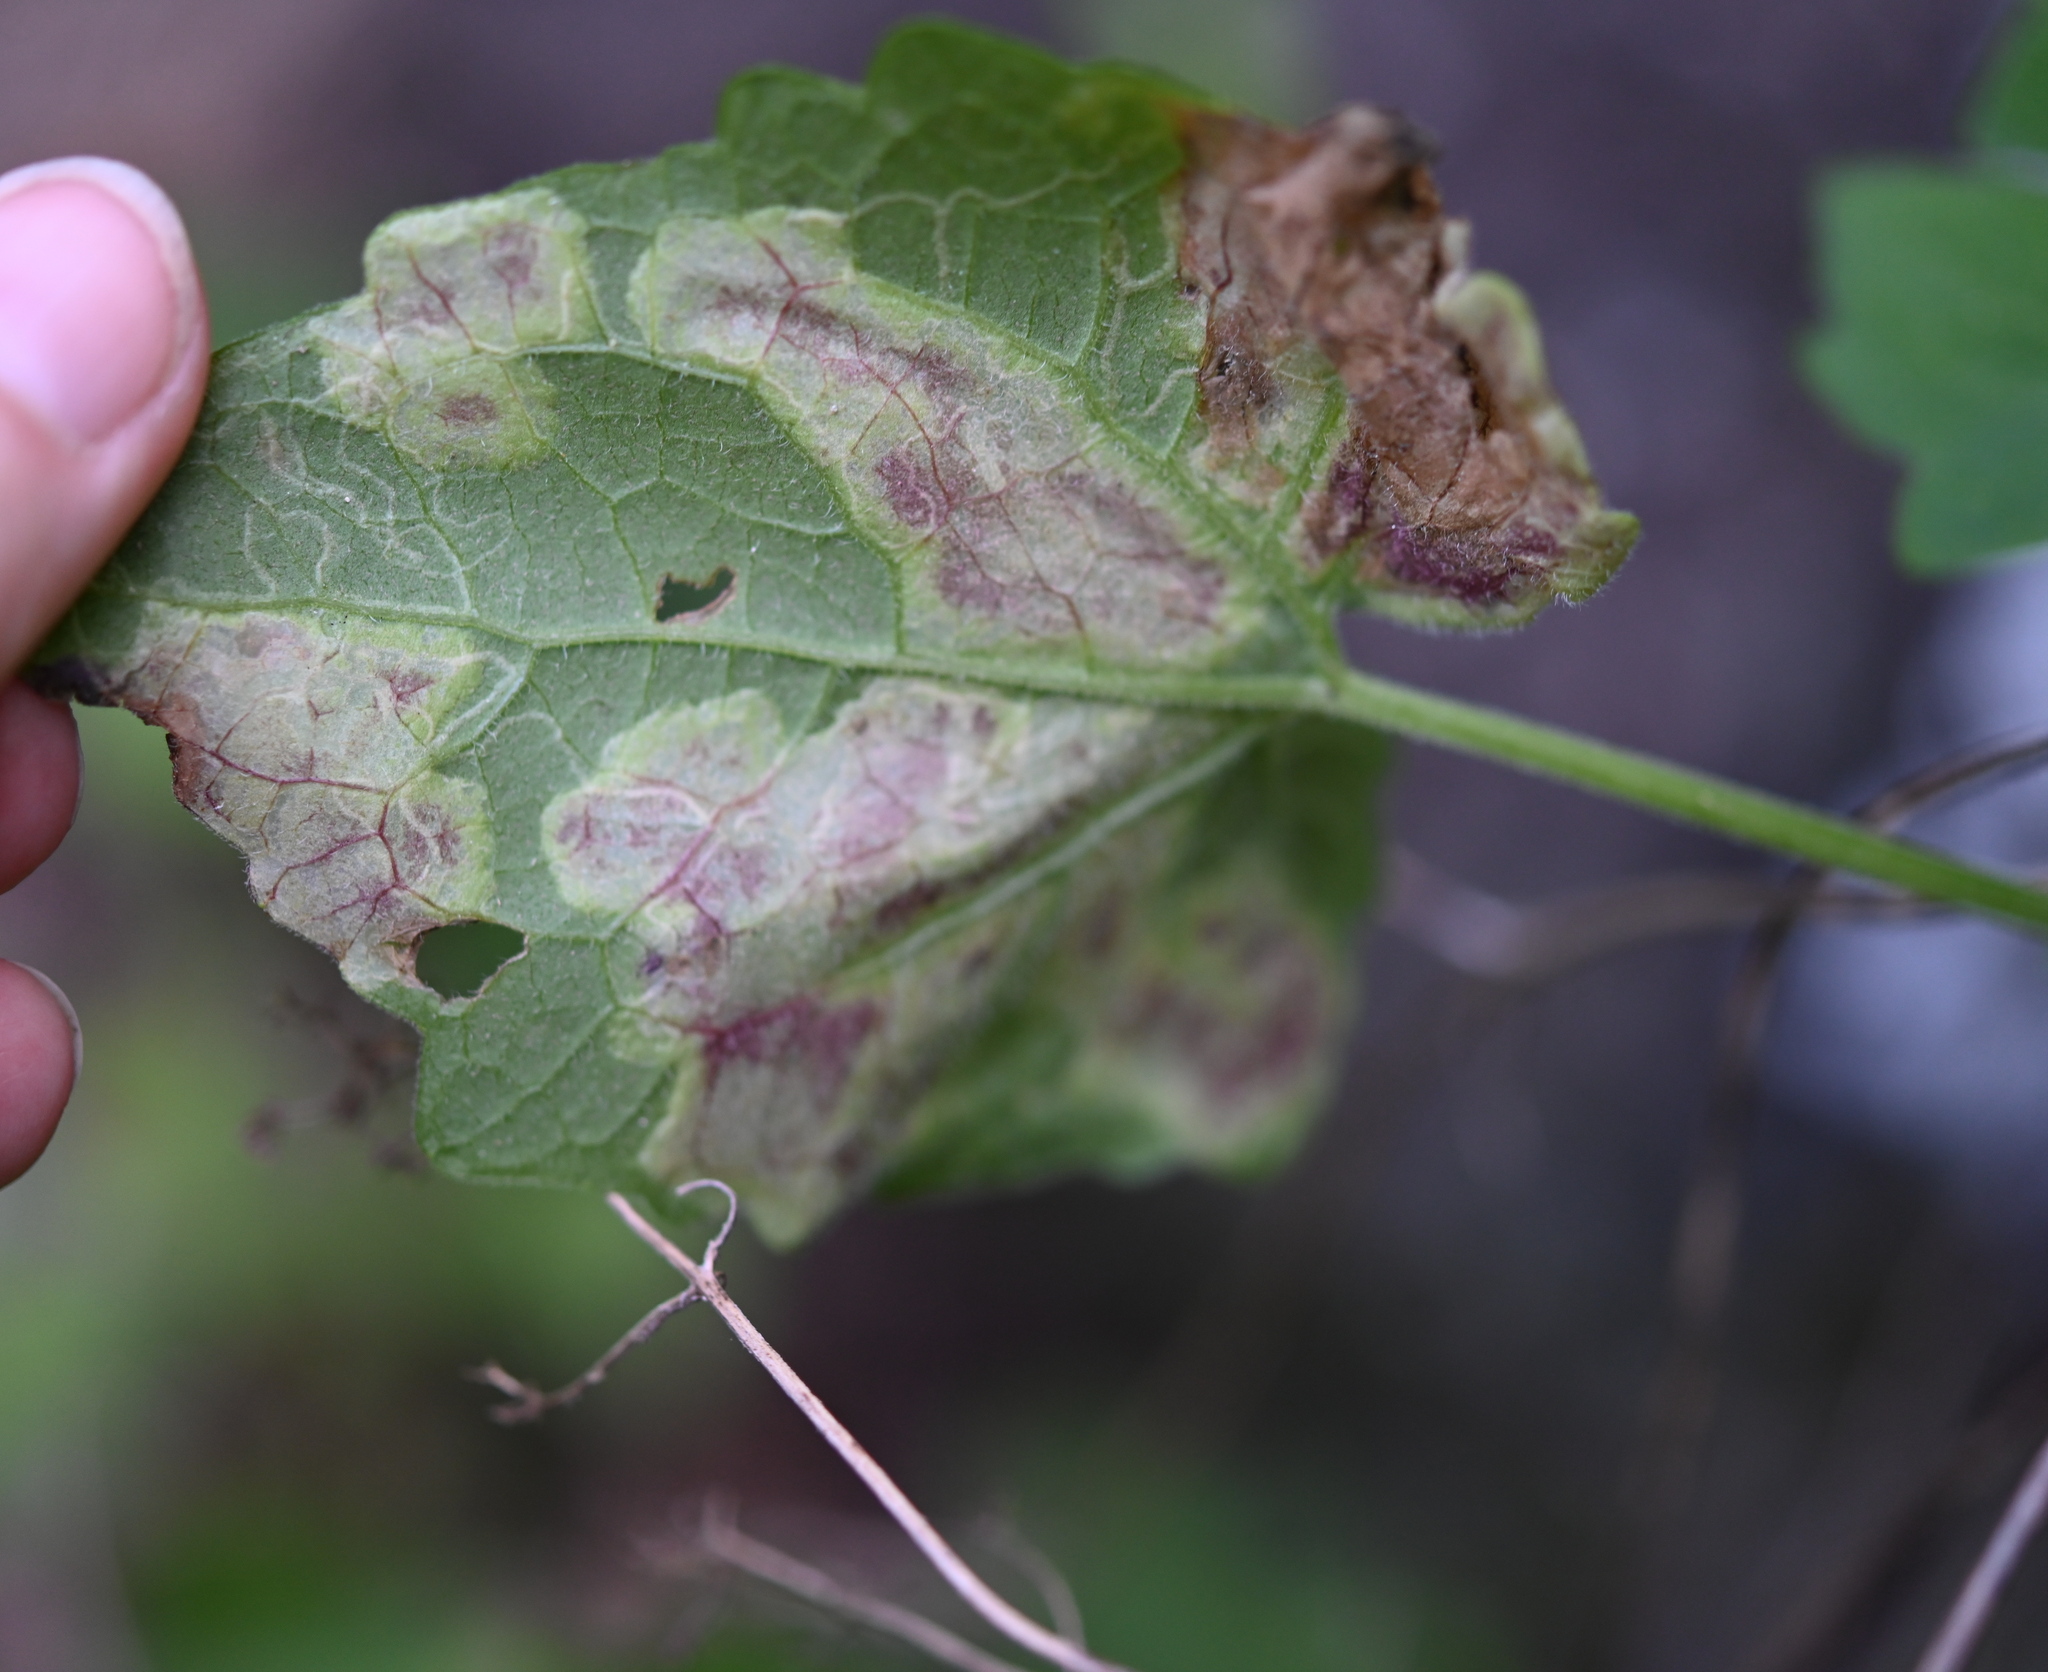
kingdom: Animalia
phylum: Arthropoda
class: Insecta
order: Lepidoptera
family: Gracillariidae
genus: Leucospilapteryx
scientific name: Leucospilapteryx venustella
